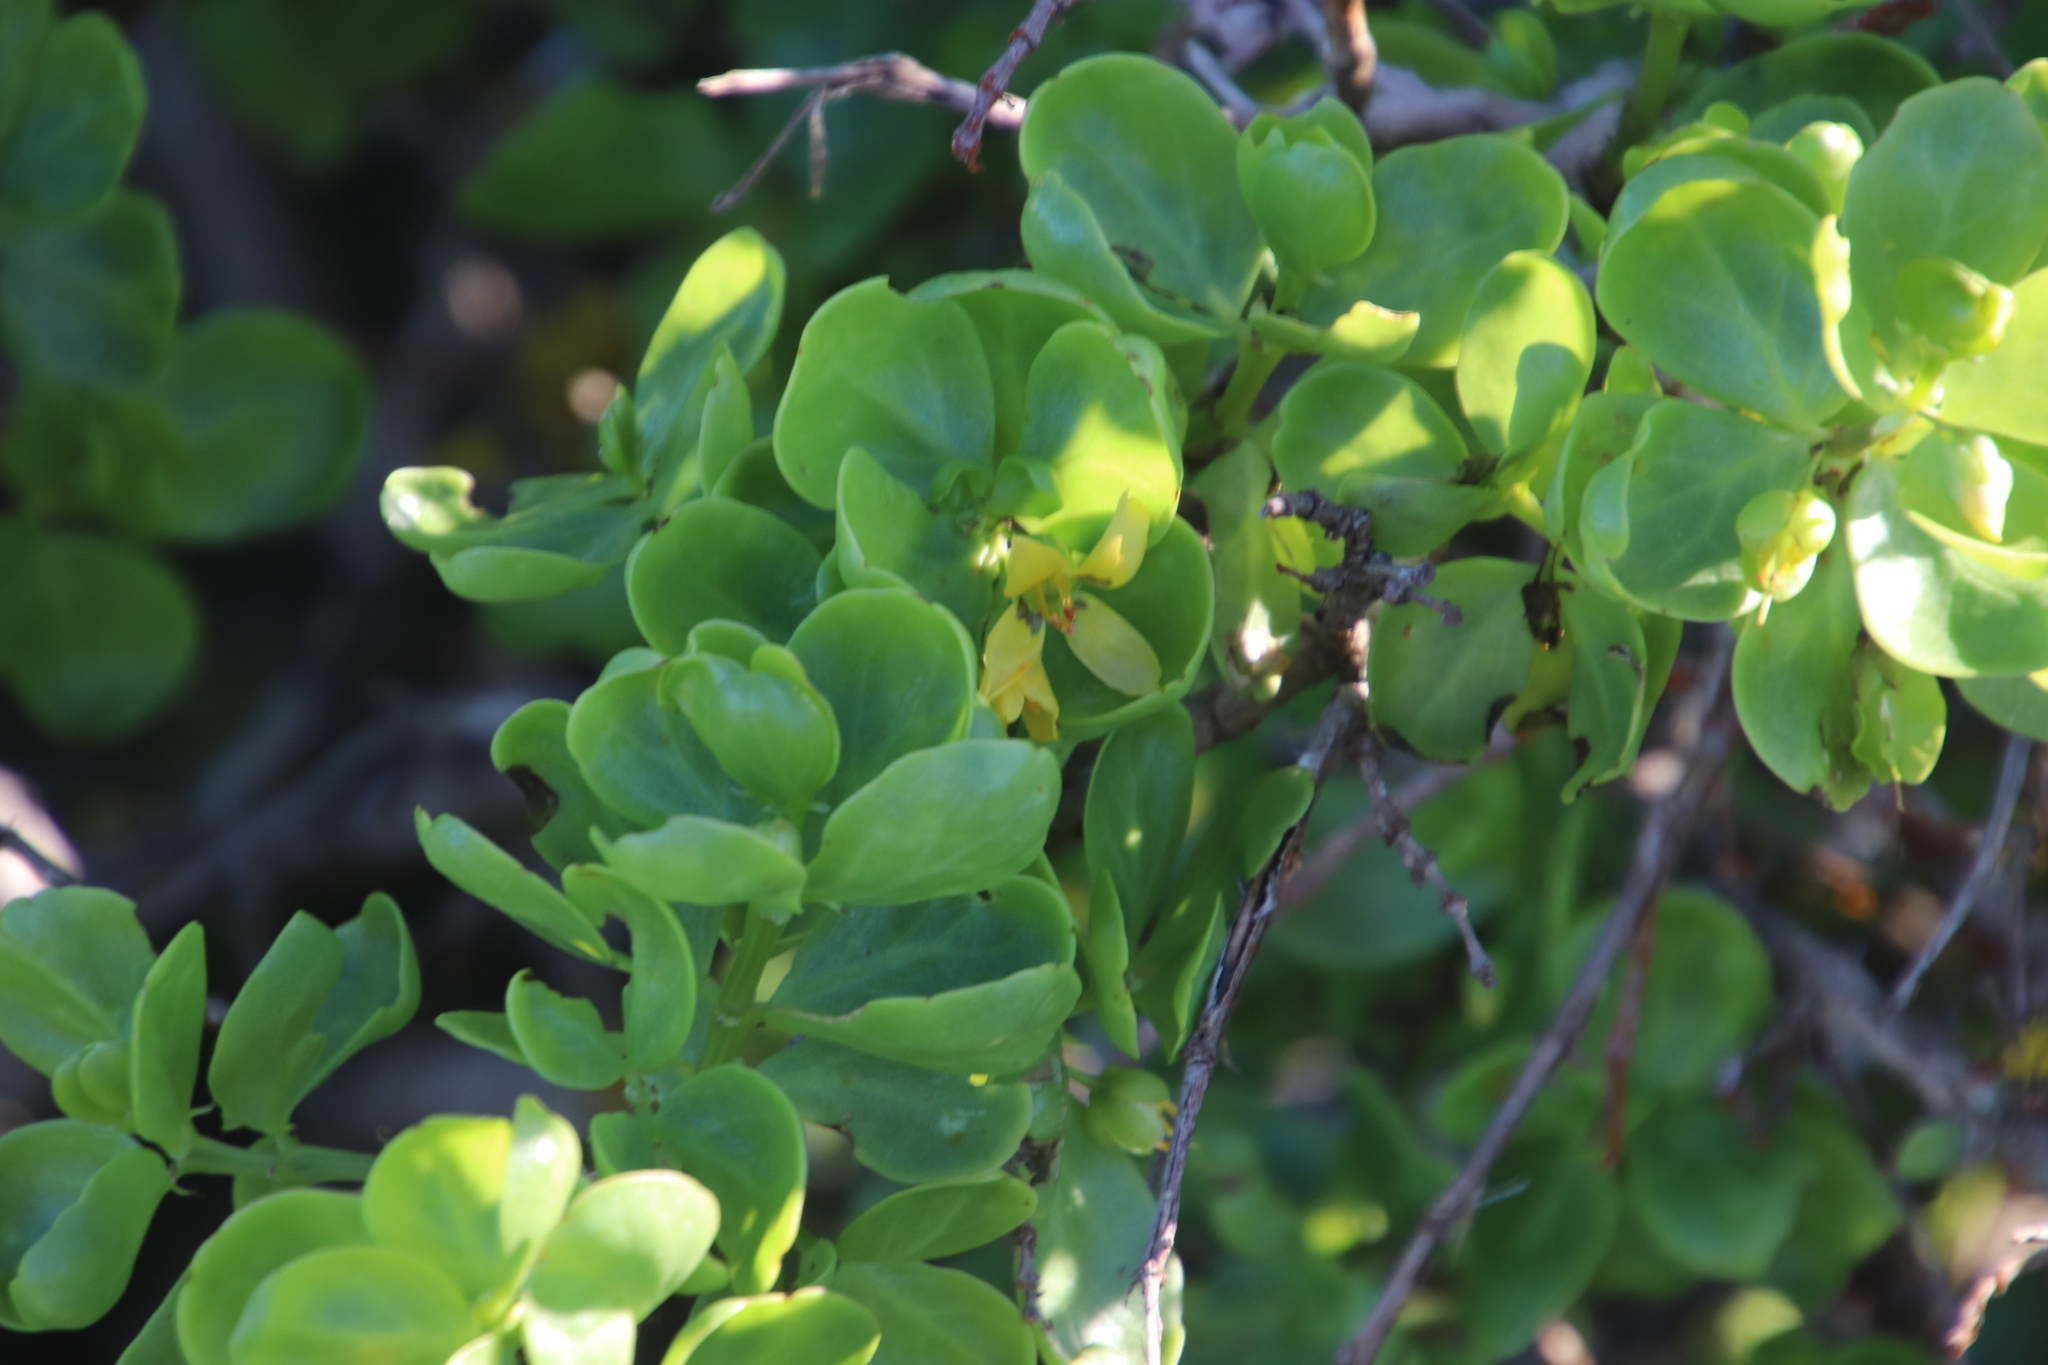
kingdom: Plantae
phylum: Tracheophyta
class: Magnoliopsida
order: Zygophyllales
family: Zygophyllaceae
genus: Roepera
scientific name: Roepera morgsana
